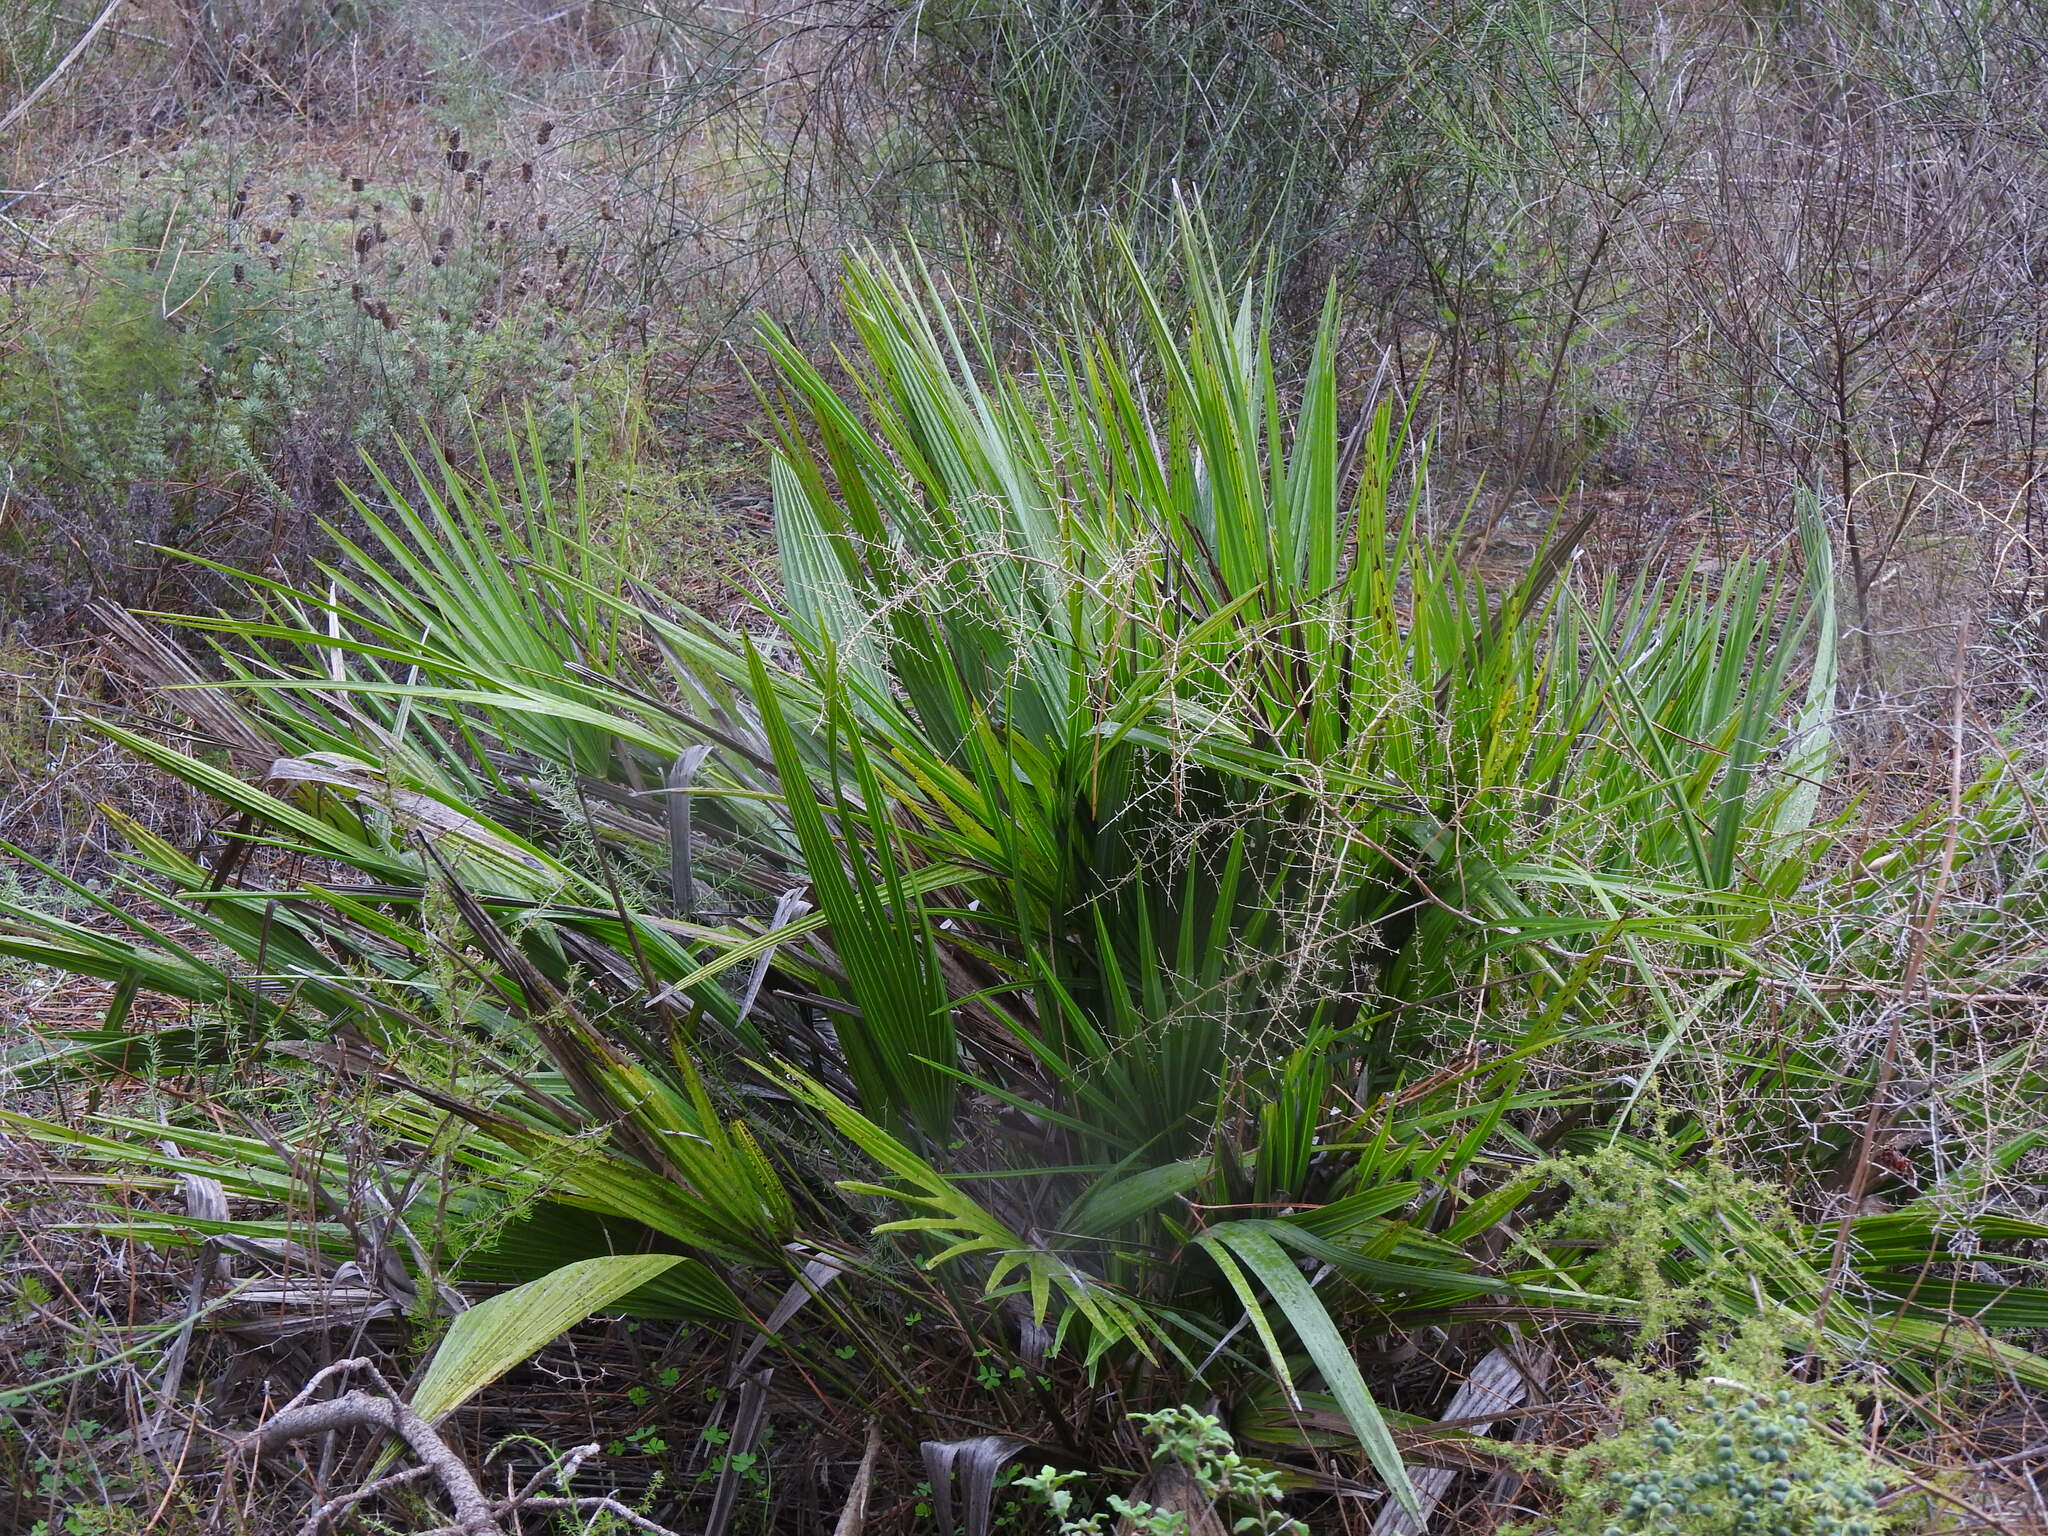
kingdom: Plantae
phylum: Tracheophyta
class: Liliopsida
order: Arecales
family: Arecaceae
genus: Chamaerops
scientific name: Chamaerops humilis
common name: Dwarf fan palm
